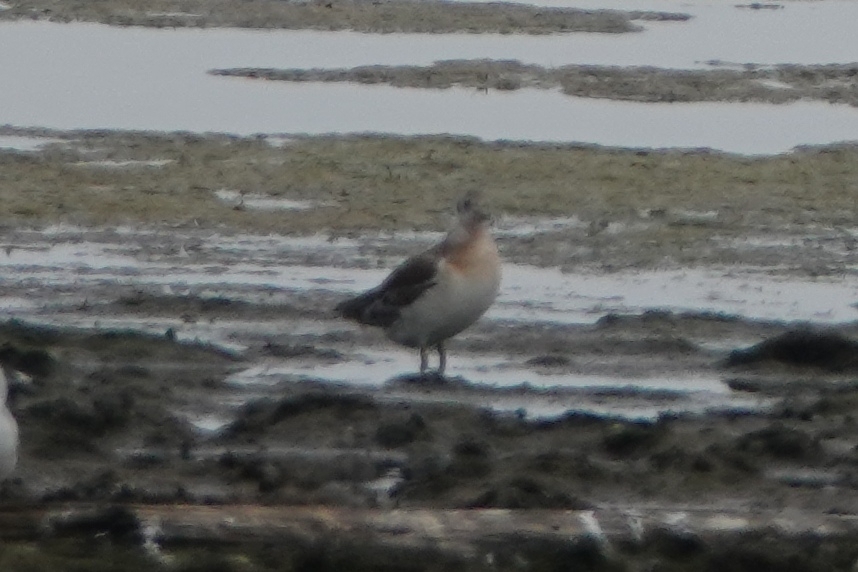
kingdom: Animalia
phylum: Chordata
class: Aves
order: Charadriiformes
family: Laridae
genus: Chroicocephalus
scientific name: Chroicocephalus ridibundus
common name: Black-headed gull
